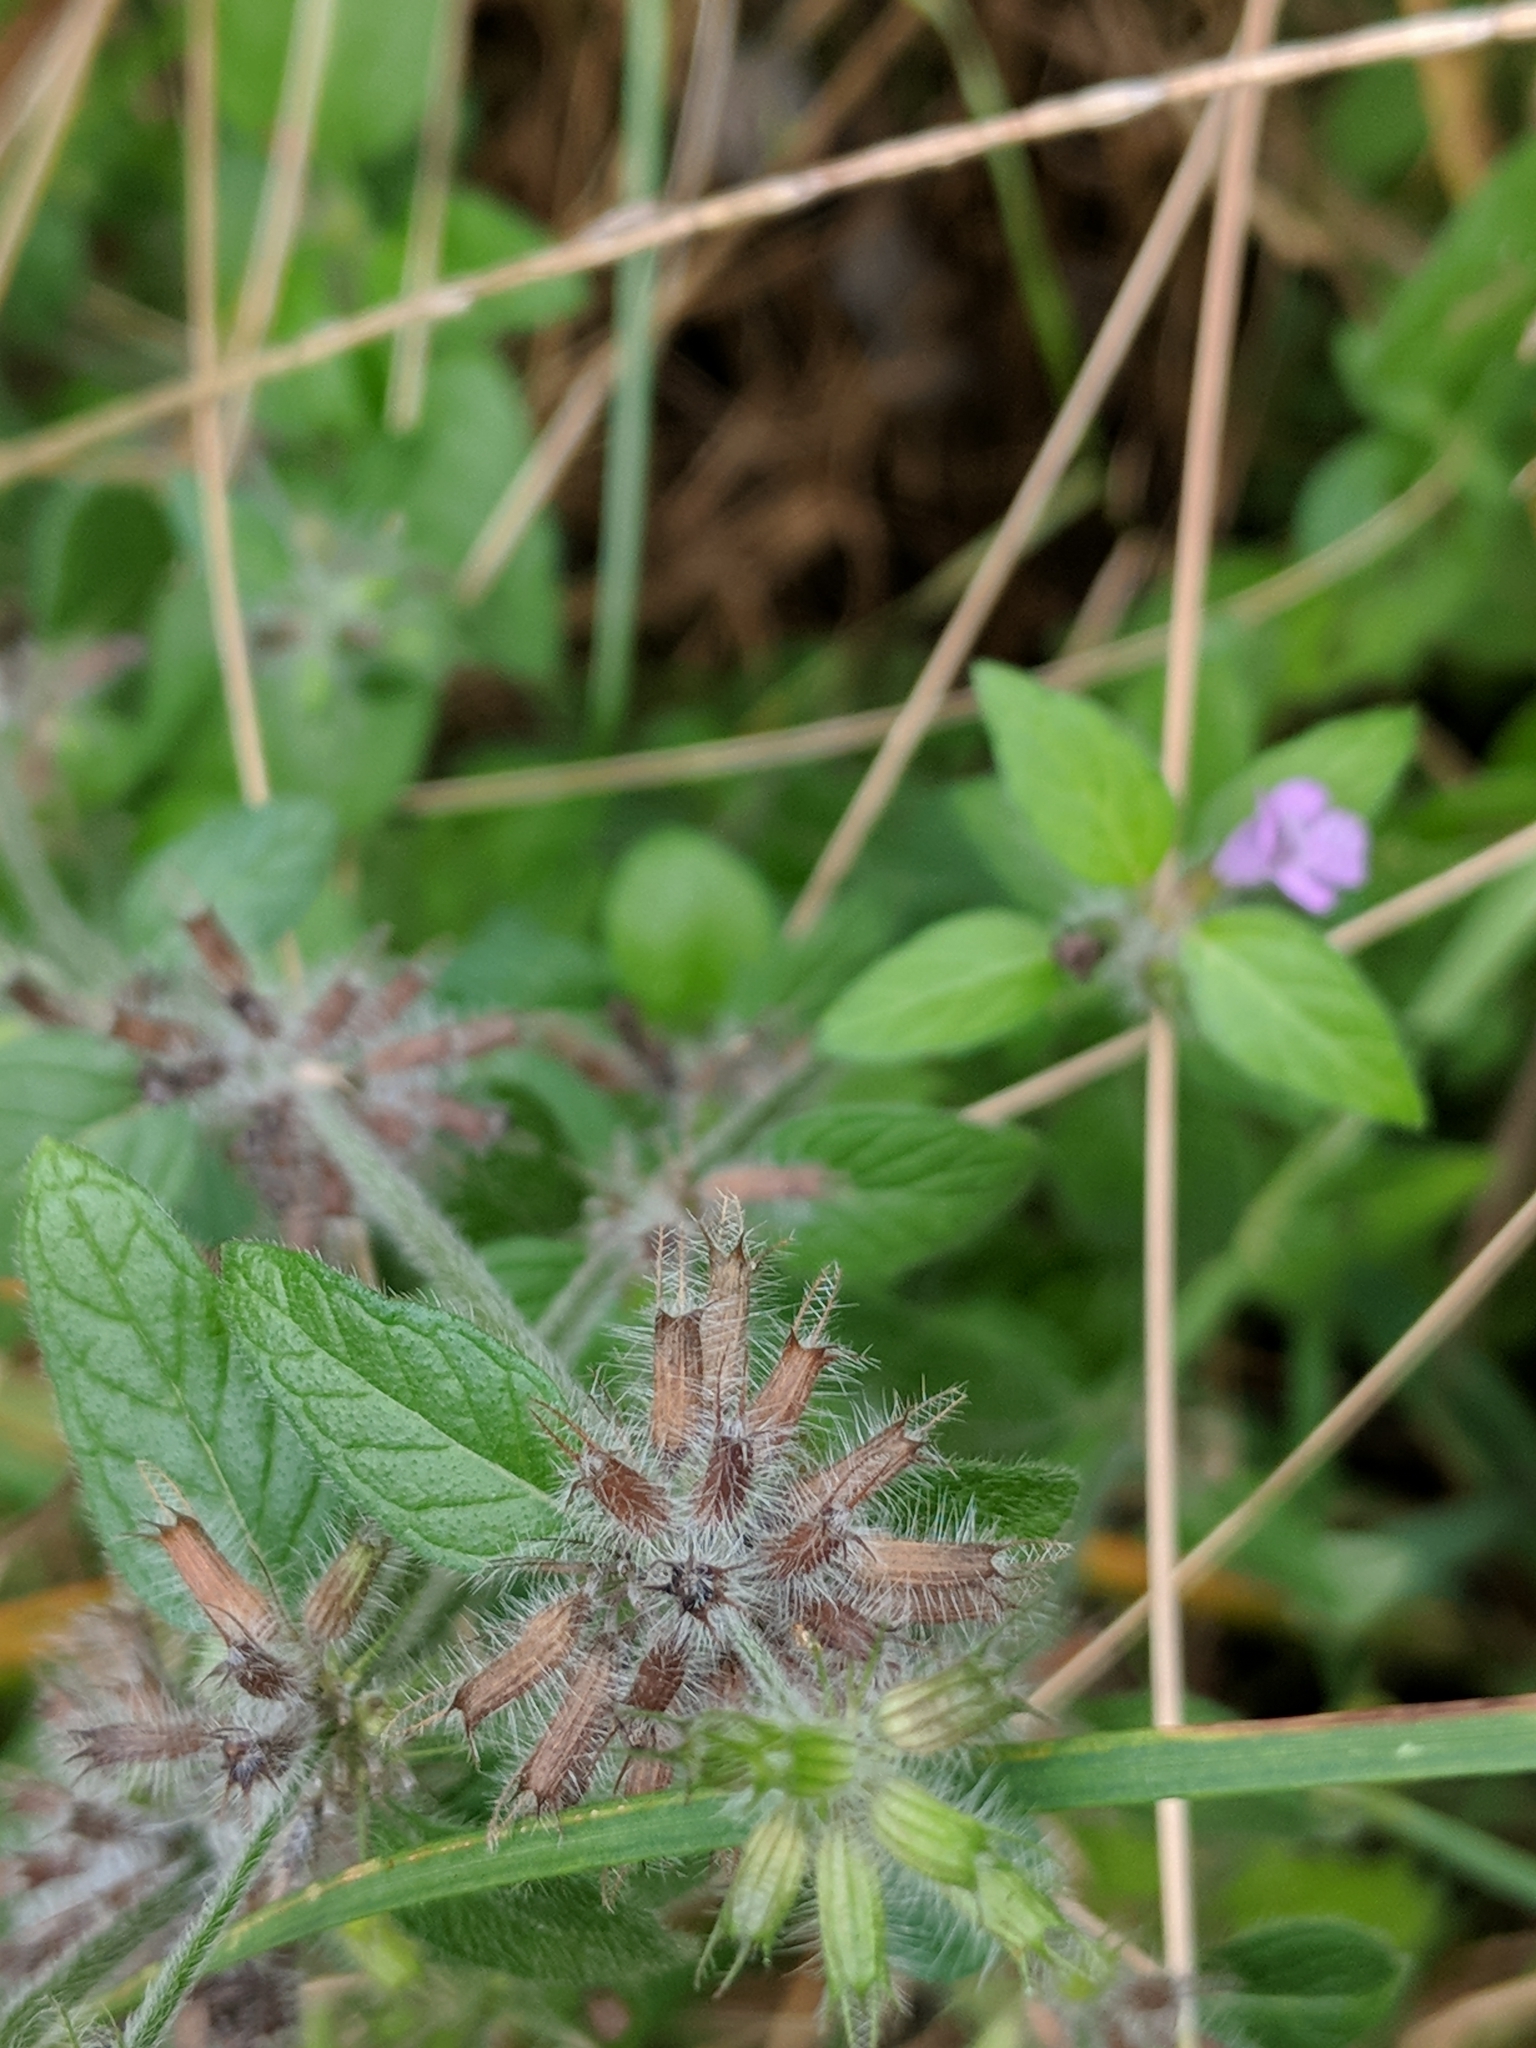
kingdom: Plantae
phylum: Tracheophyta
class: Magnoliopsida
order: Lamiales
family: Lamiaceae
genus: Clinopodium
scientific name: Clinopodium vulgare
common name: Wild basil
